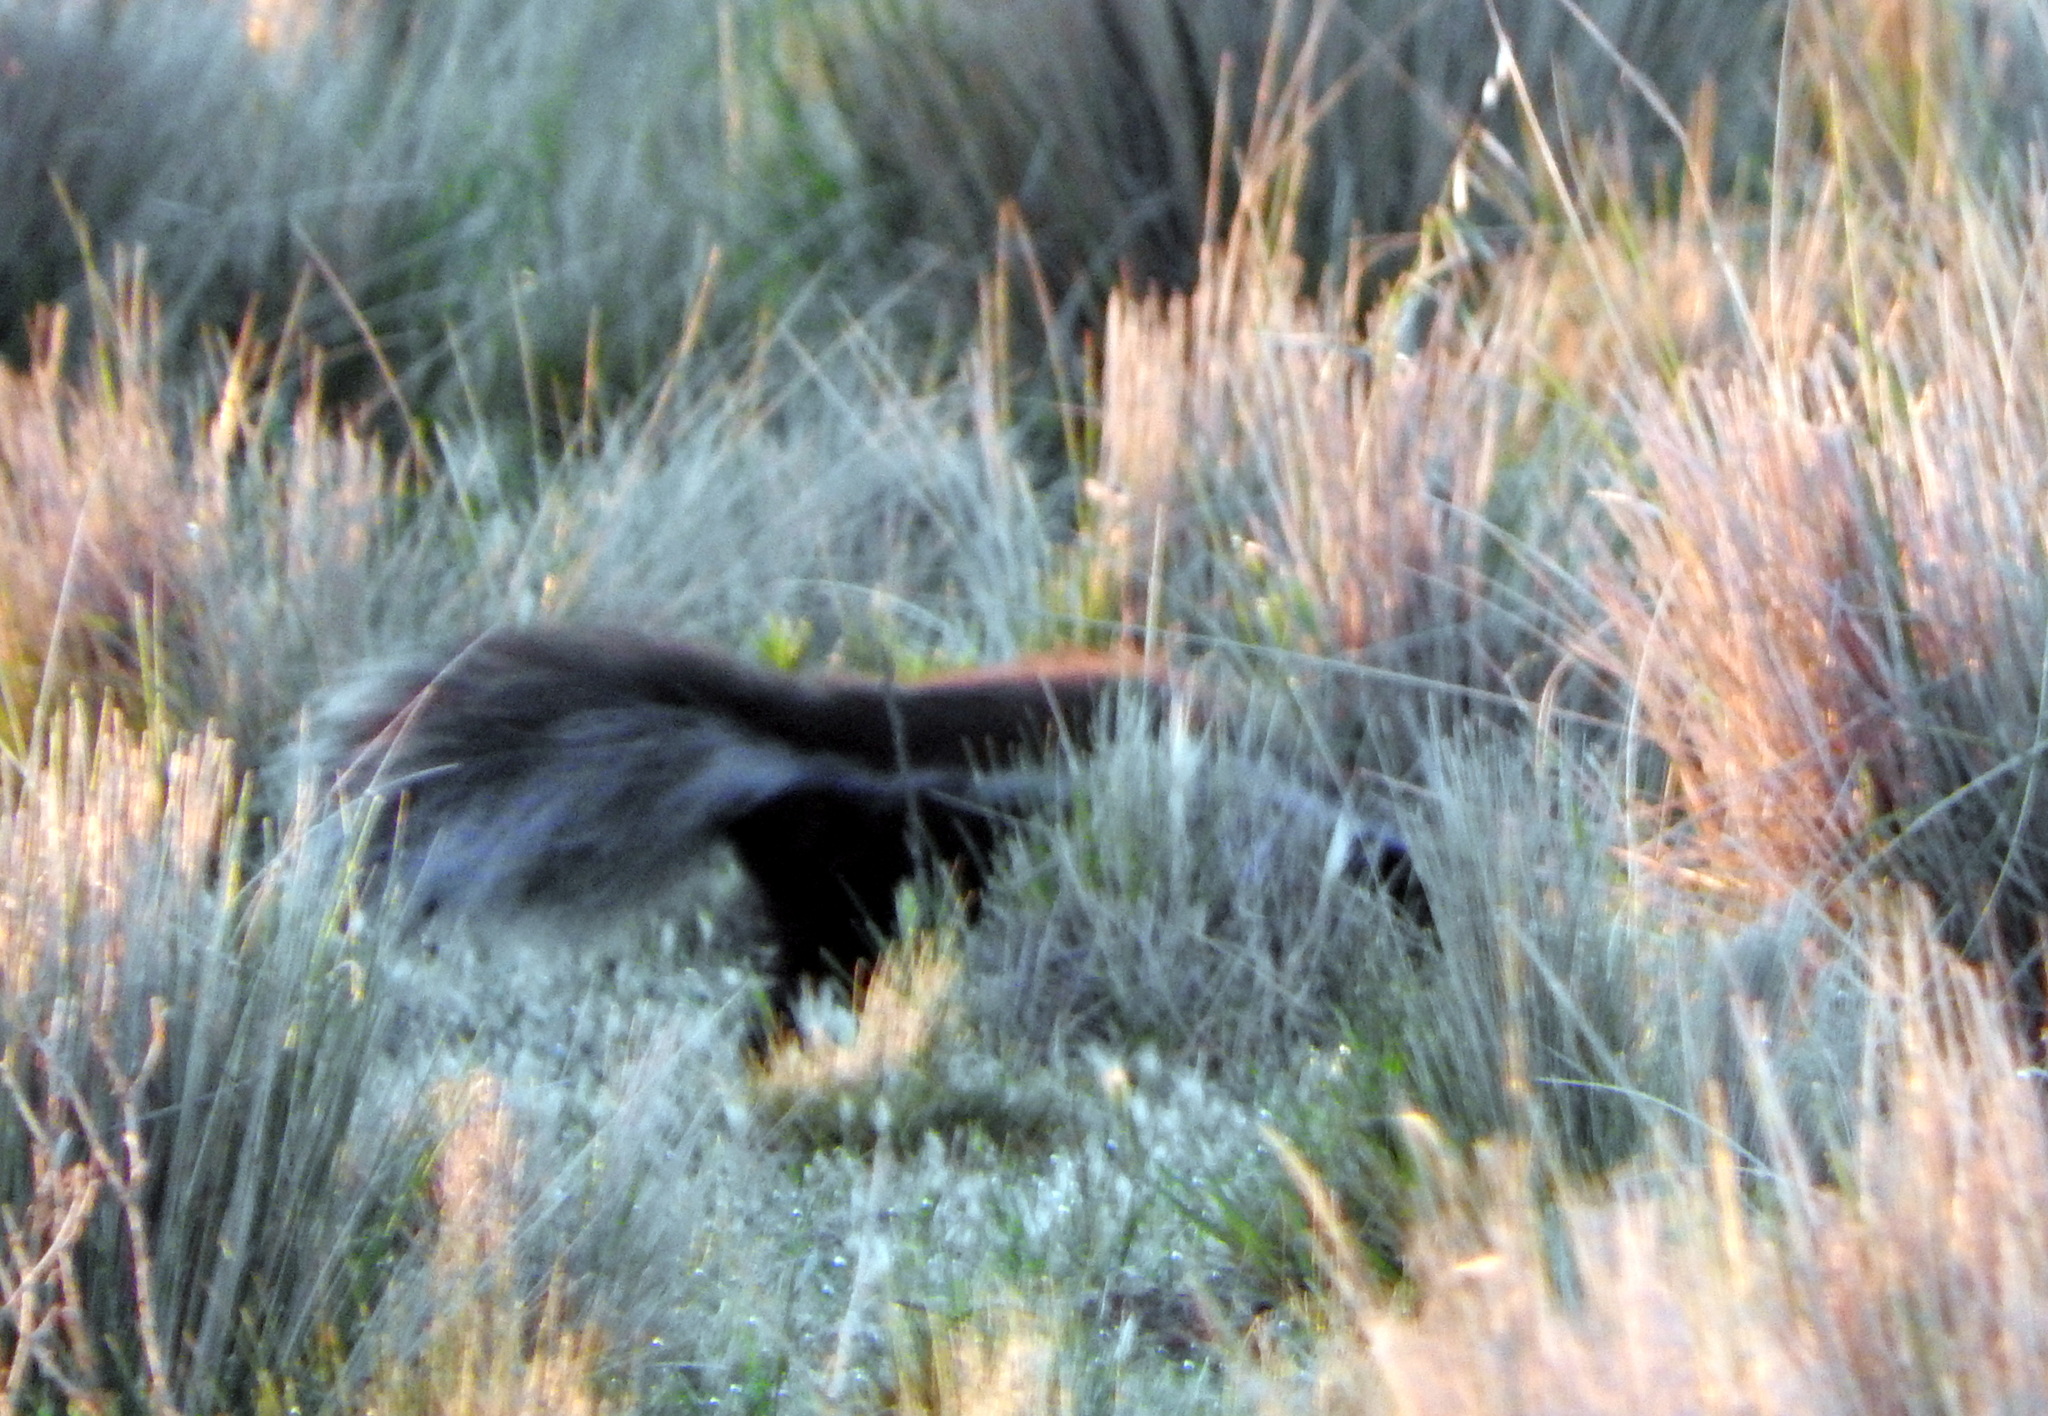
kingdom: Animalia
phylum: Chordata
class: Mammalia
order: Carnivora
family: Mephitidae
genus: Conepatus
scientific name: Conepatus chinga
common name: Molina's hog-nosed skunk
